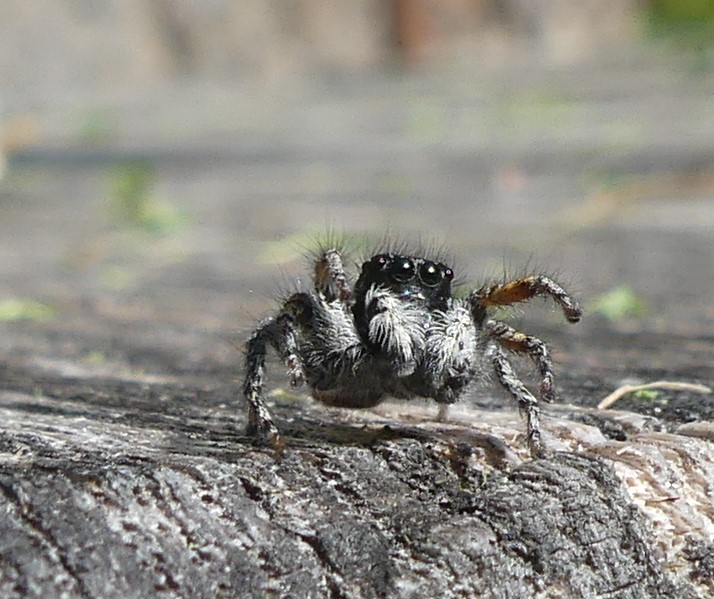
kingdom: Animalia
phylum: Arthropoda
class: Arachnida
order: Araneae
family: Salticidae
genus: Philaeus
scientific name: Philaeus chrysops
